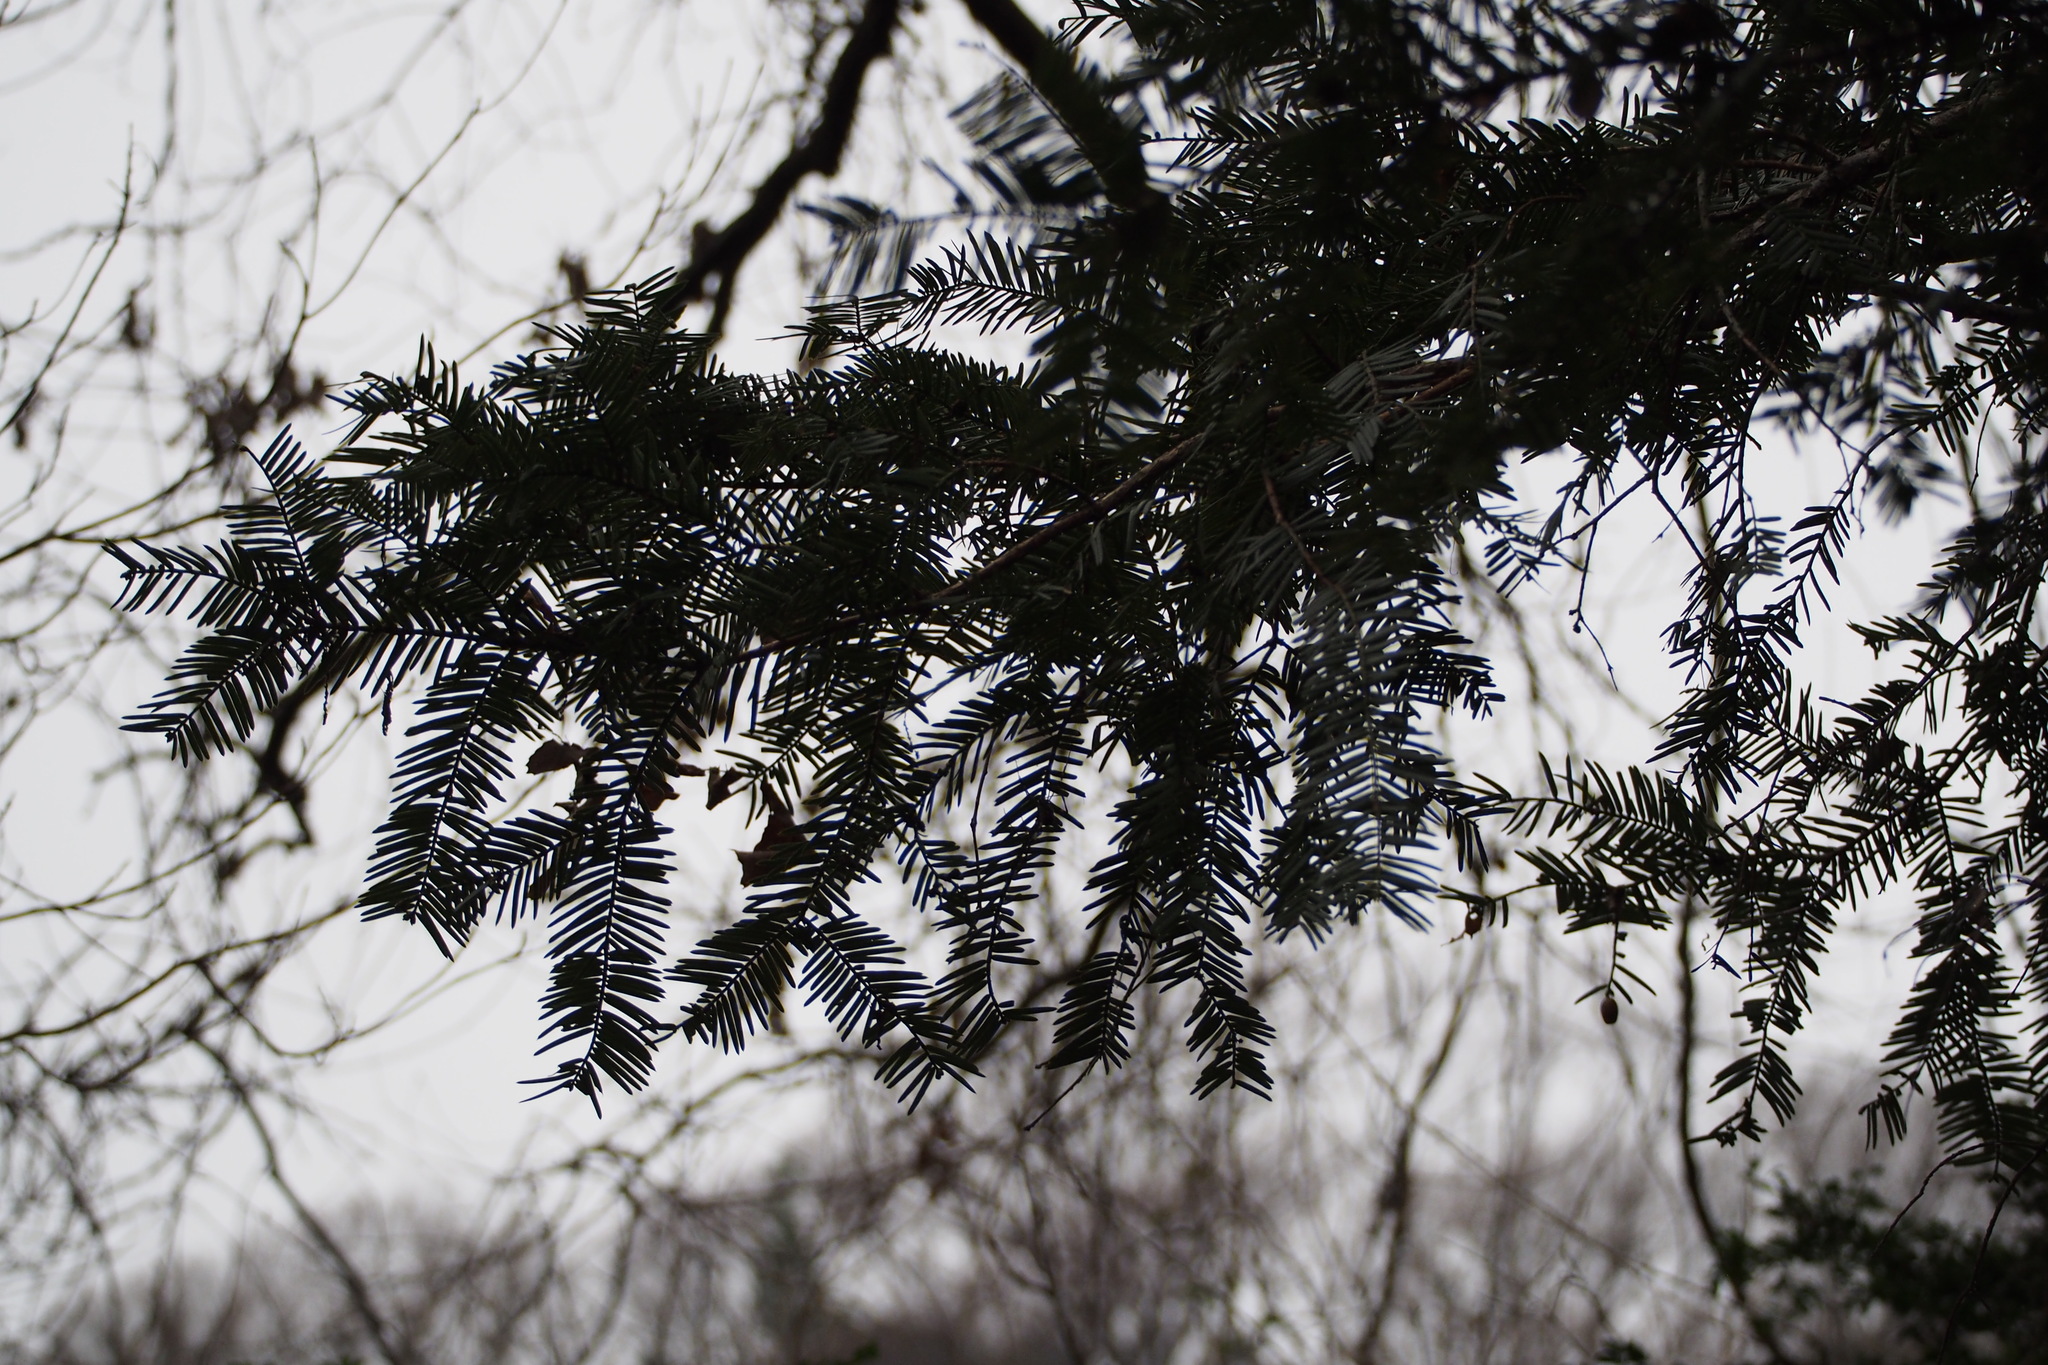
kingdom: Plantae
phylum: Tracheophyta
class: Pinopsida
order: Pinales
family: Cephalotaxaceae
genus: Cephalotaxus
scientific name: Cephalotaxus harringtonia
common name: Japanese plum-yew
